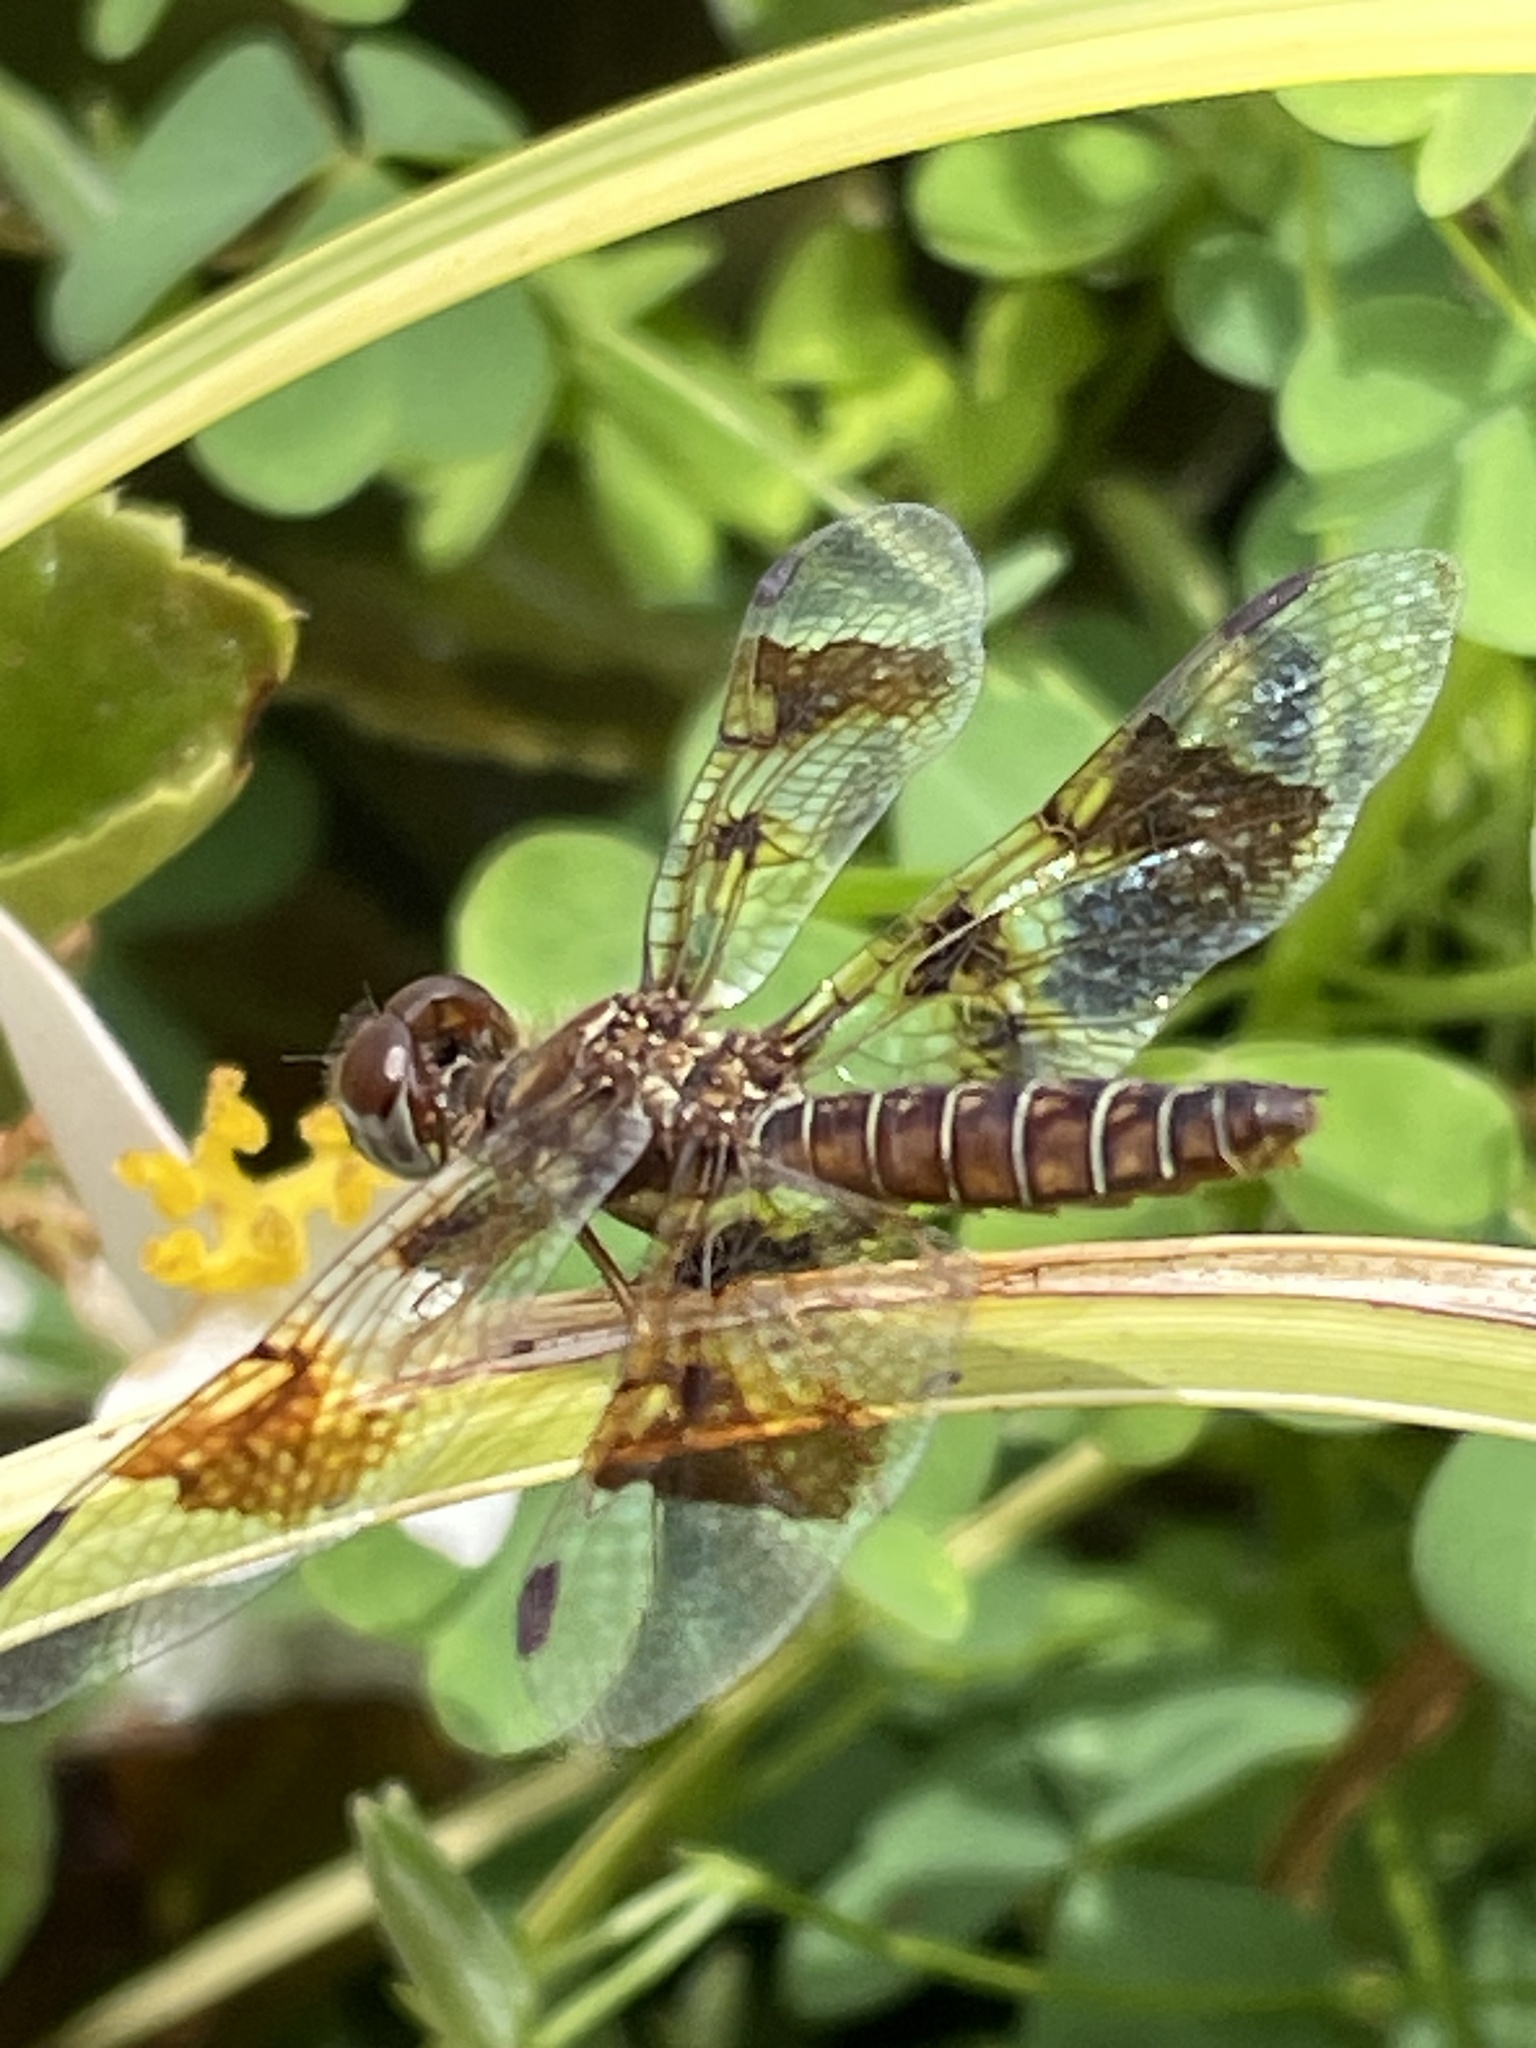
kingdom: Animalia
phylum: Arthropoda
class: Insecta
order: Odonata
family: Libellulidae
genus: Perithemis
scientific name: Perithemis tenera
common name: Eastern amberwing
